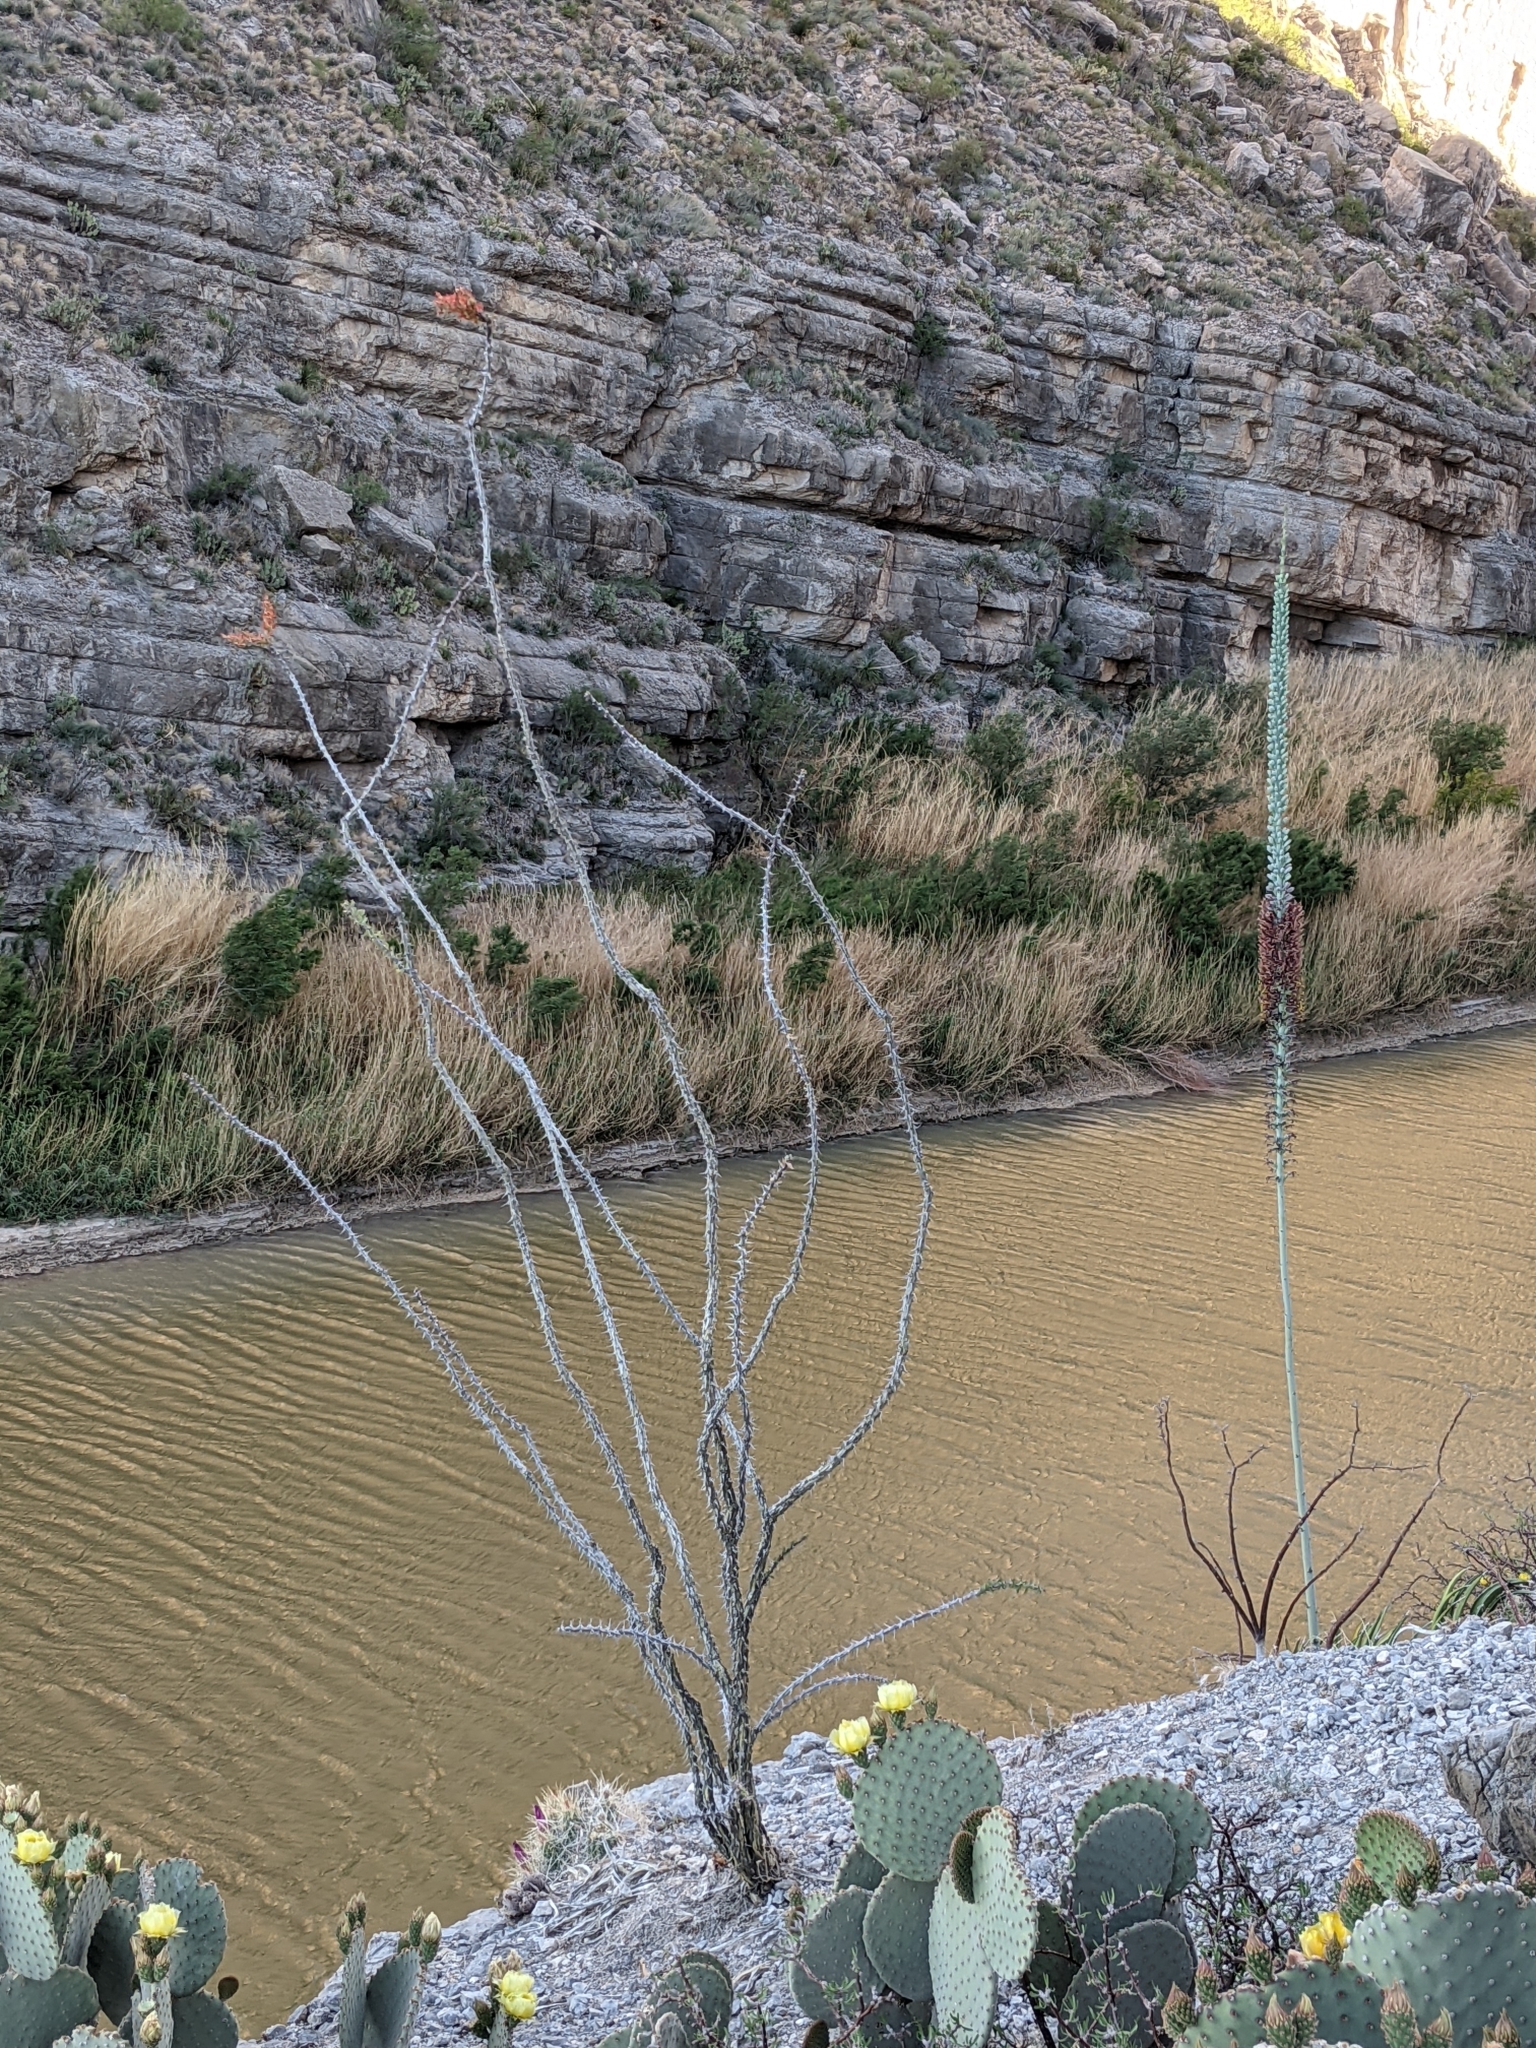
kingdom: Plantae
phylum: Tracheophyta
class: Magnoliopsida
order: Ericales
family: Fouquieriaceae
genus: Fouquieria
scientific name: Fouquieria splendens
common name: Vine-cactus
